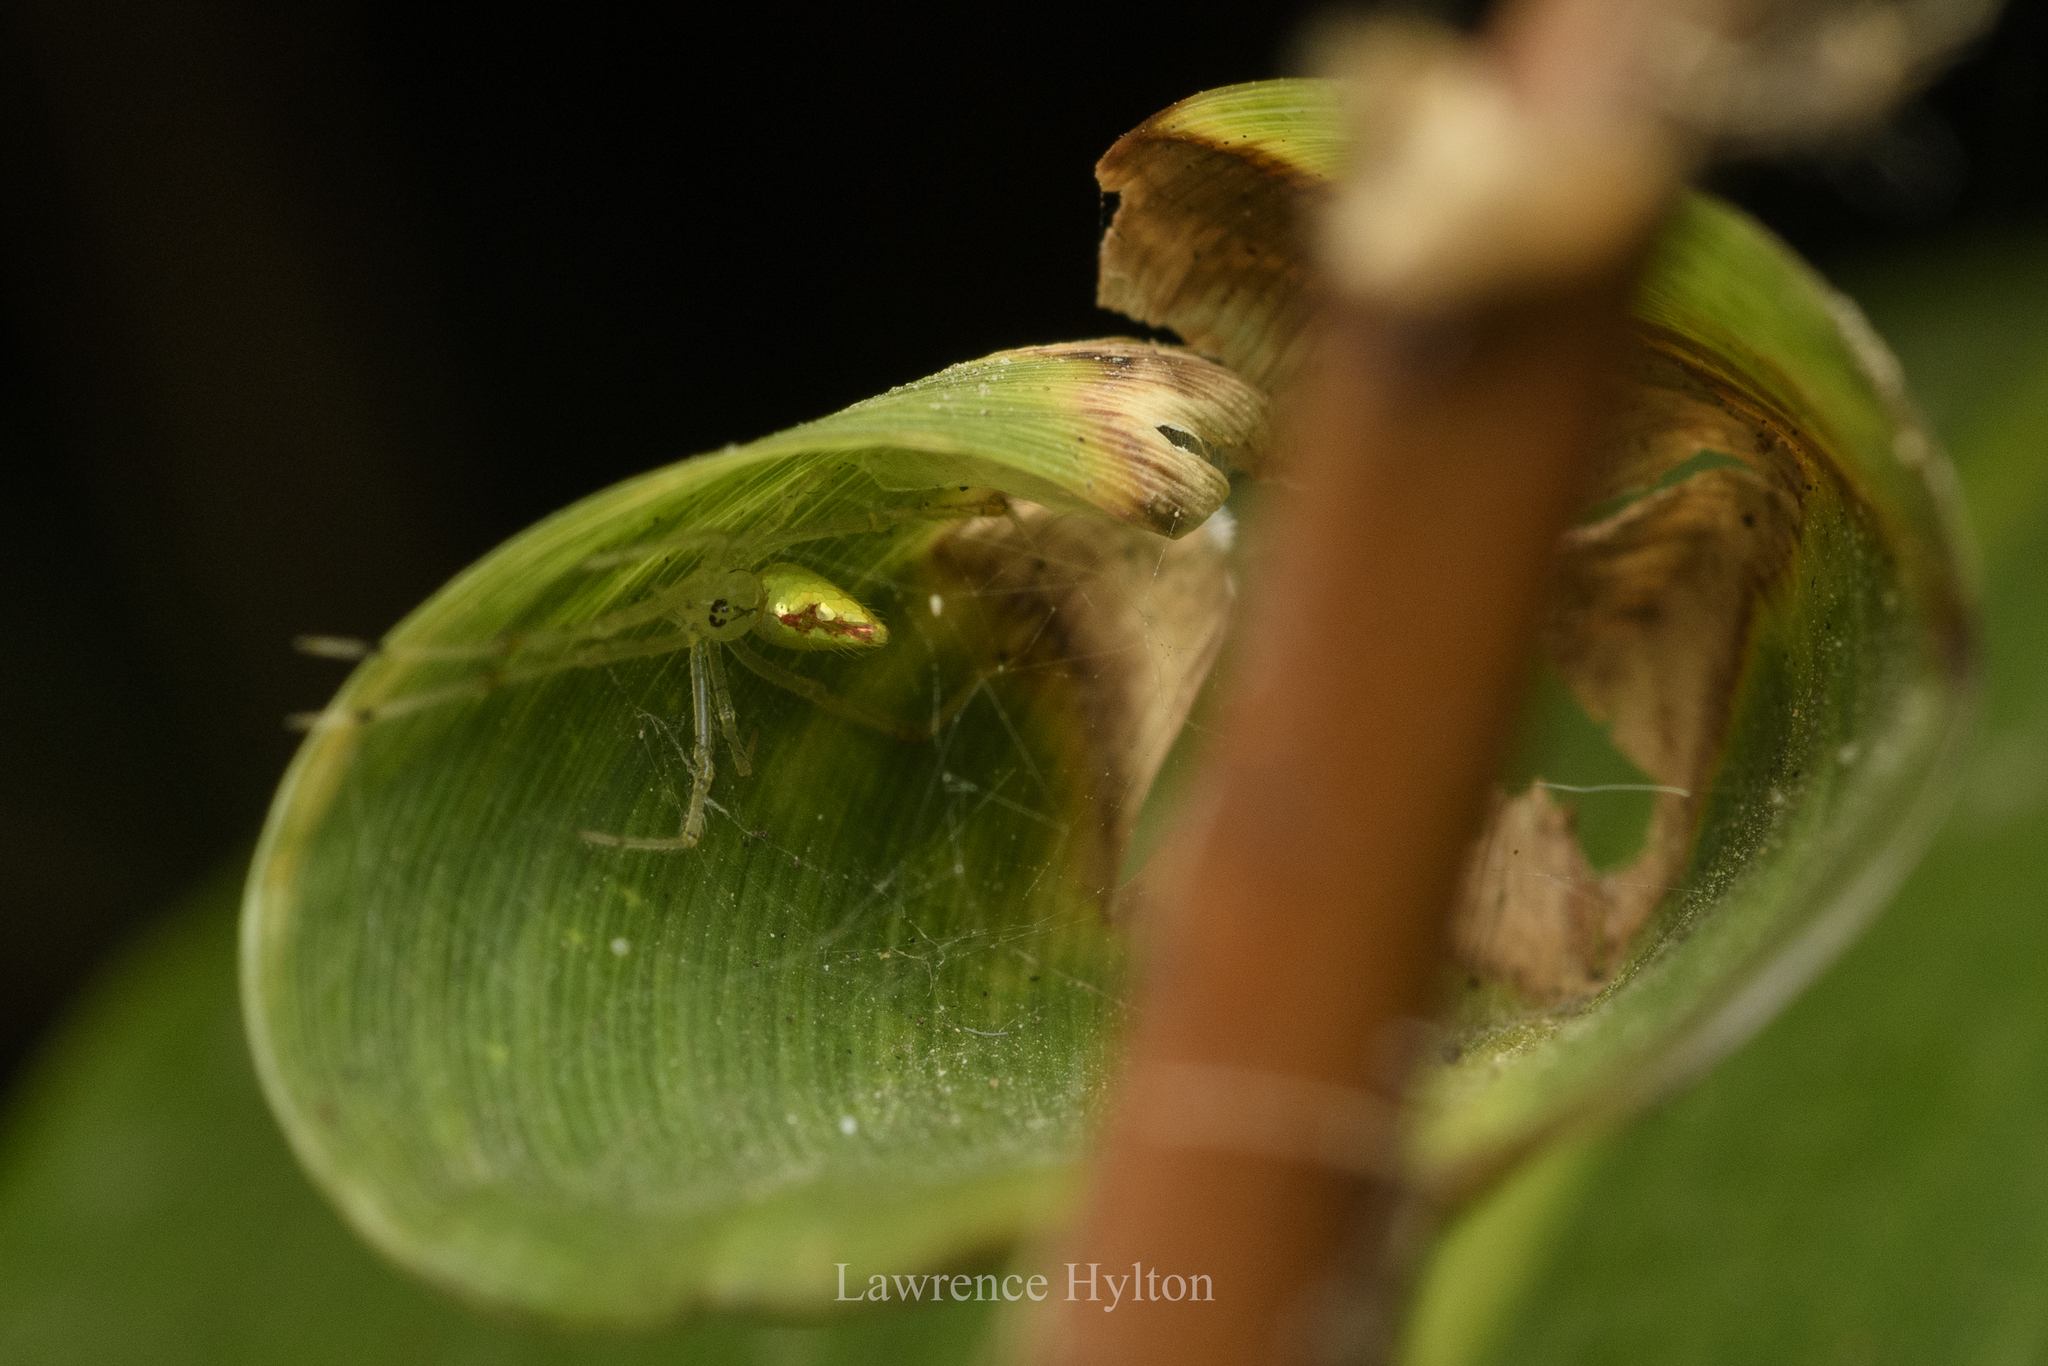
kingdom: Animalia
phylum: Arthropoda
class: Arachnida
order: Araneae
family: Theridiidae
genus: Thwaitesia
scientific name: Thwaitesia margaritifera
